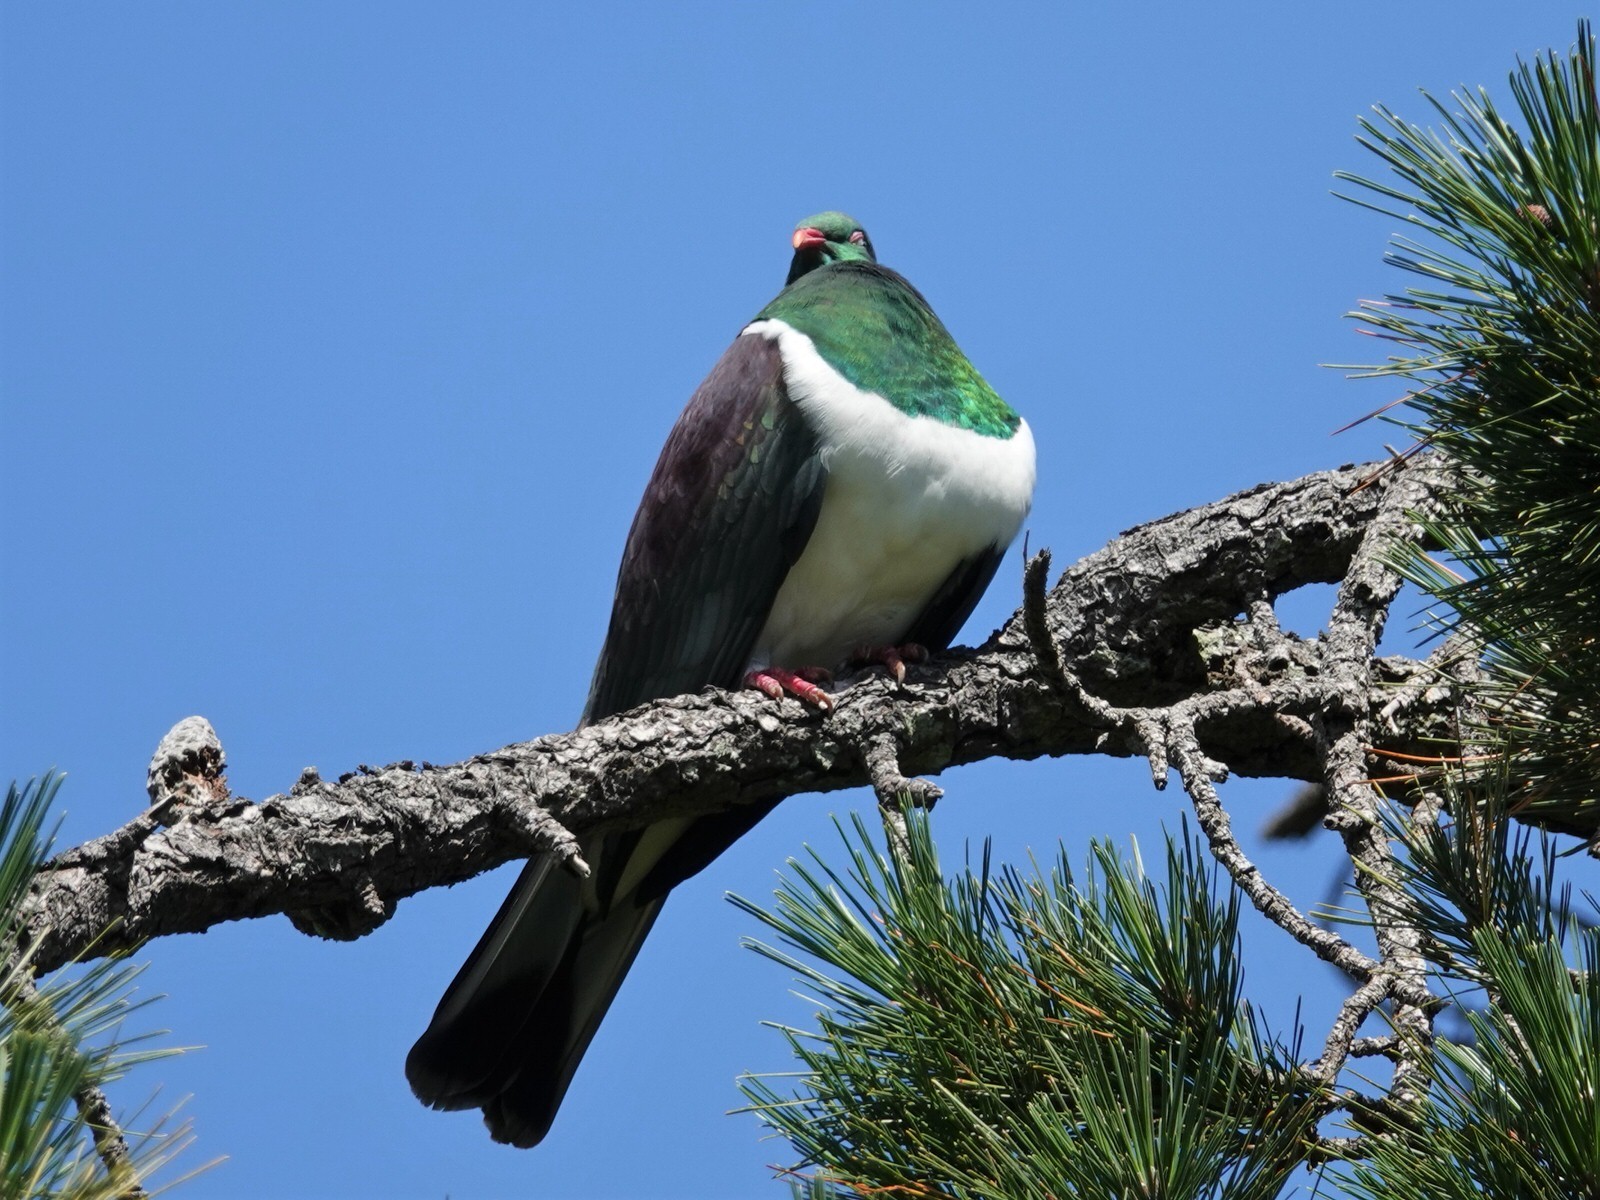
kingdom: Animalia
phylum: Chordata
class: Aves
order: Columbiformes
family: Columbidae
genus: Hemiphaga
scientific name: Hemiphaga novaeseelandiae
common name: New zealand pigeon
